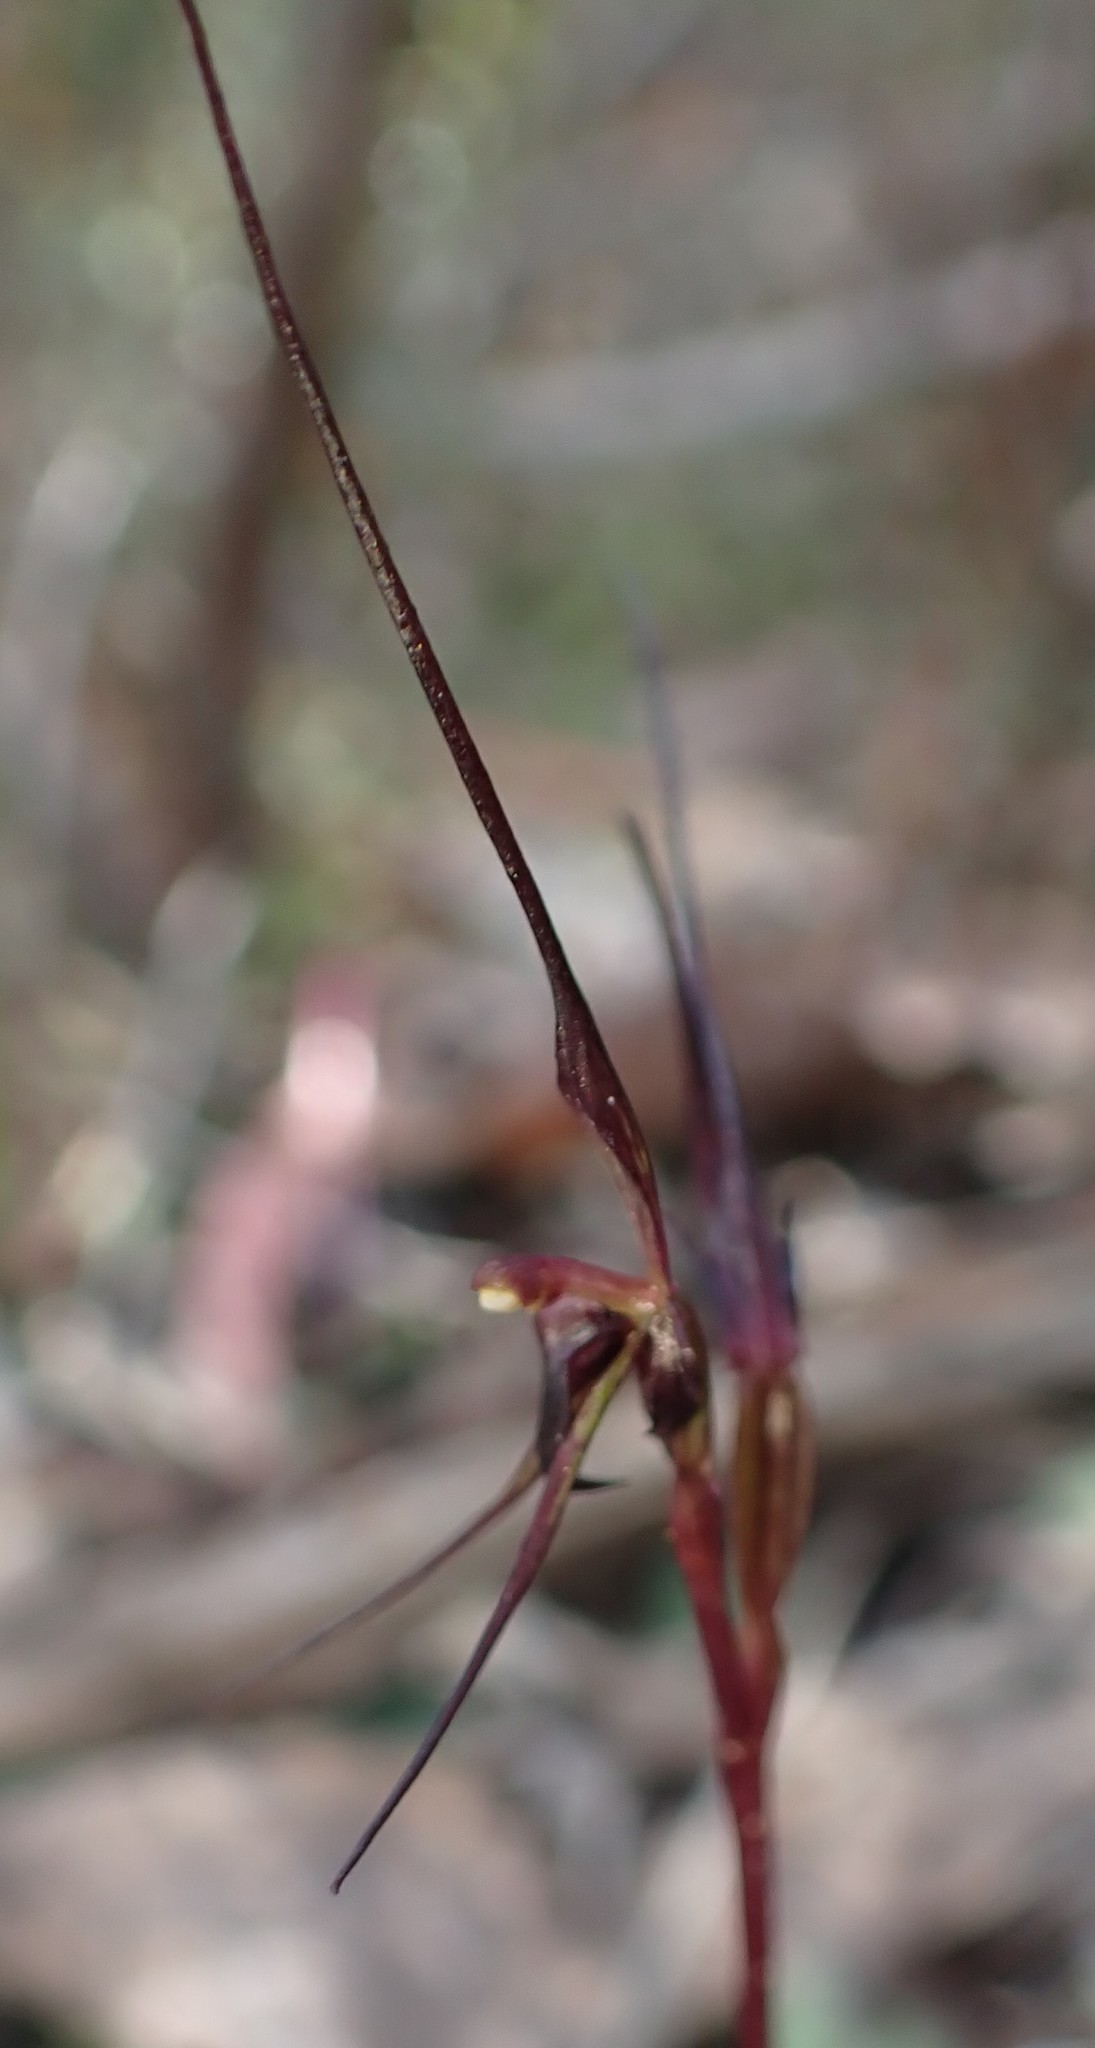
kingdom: Plantae
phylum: Tracheophyta
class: Liliopsida
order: Asparagales
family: Orchidaceae
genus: Acianthus
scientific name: Acianthus caudatus
